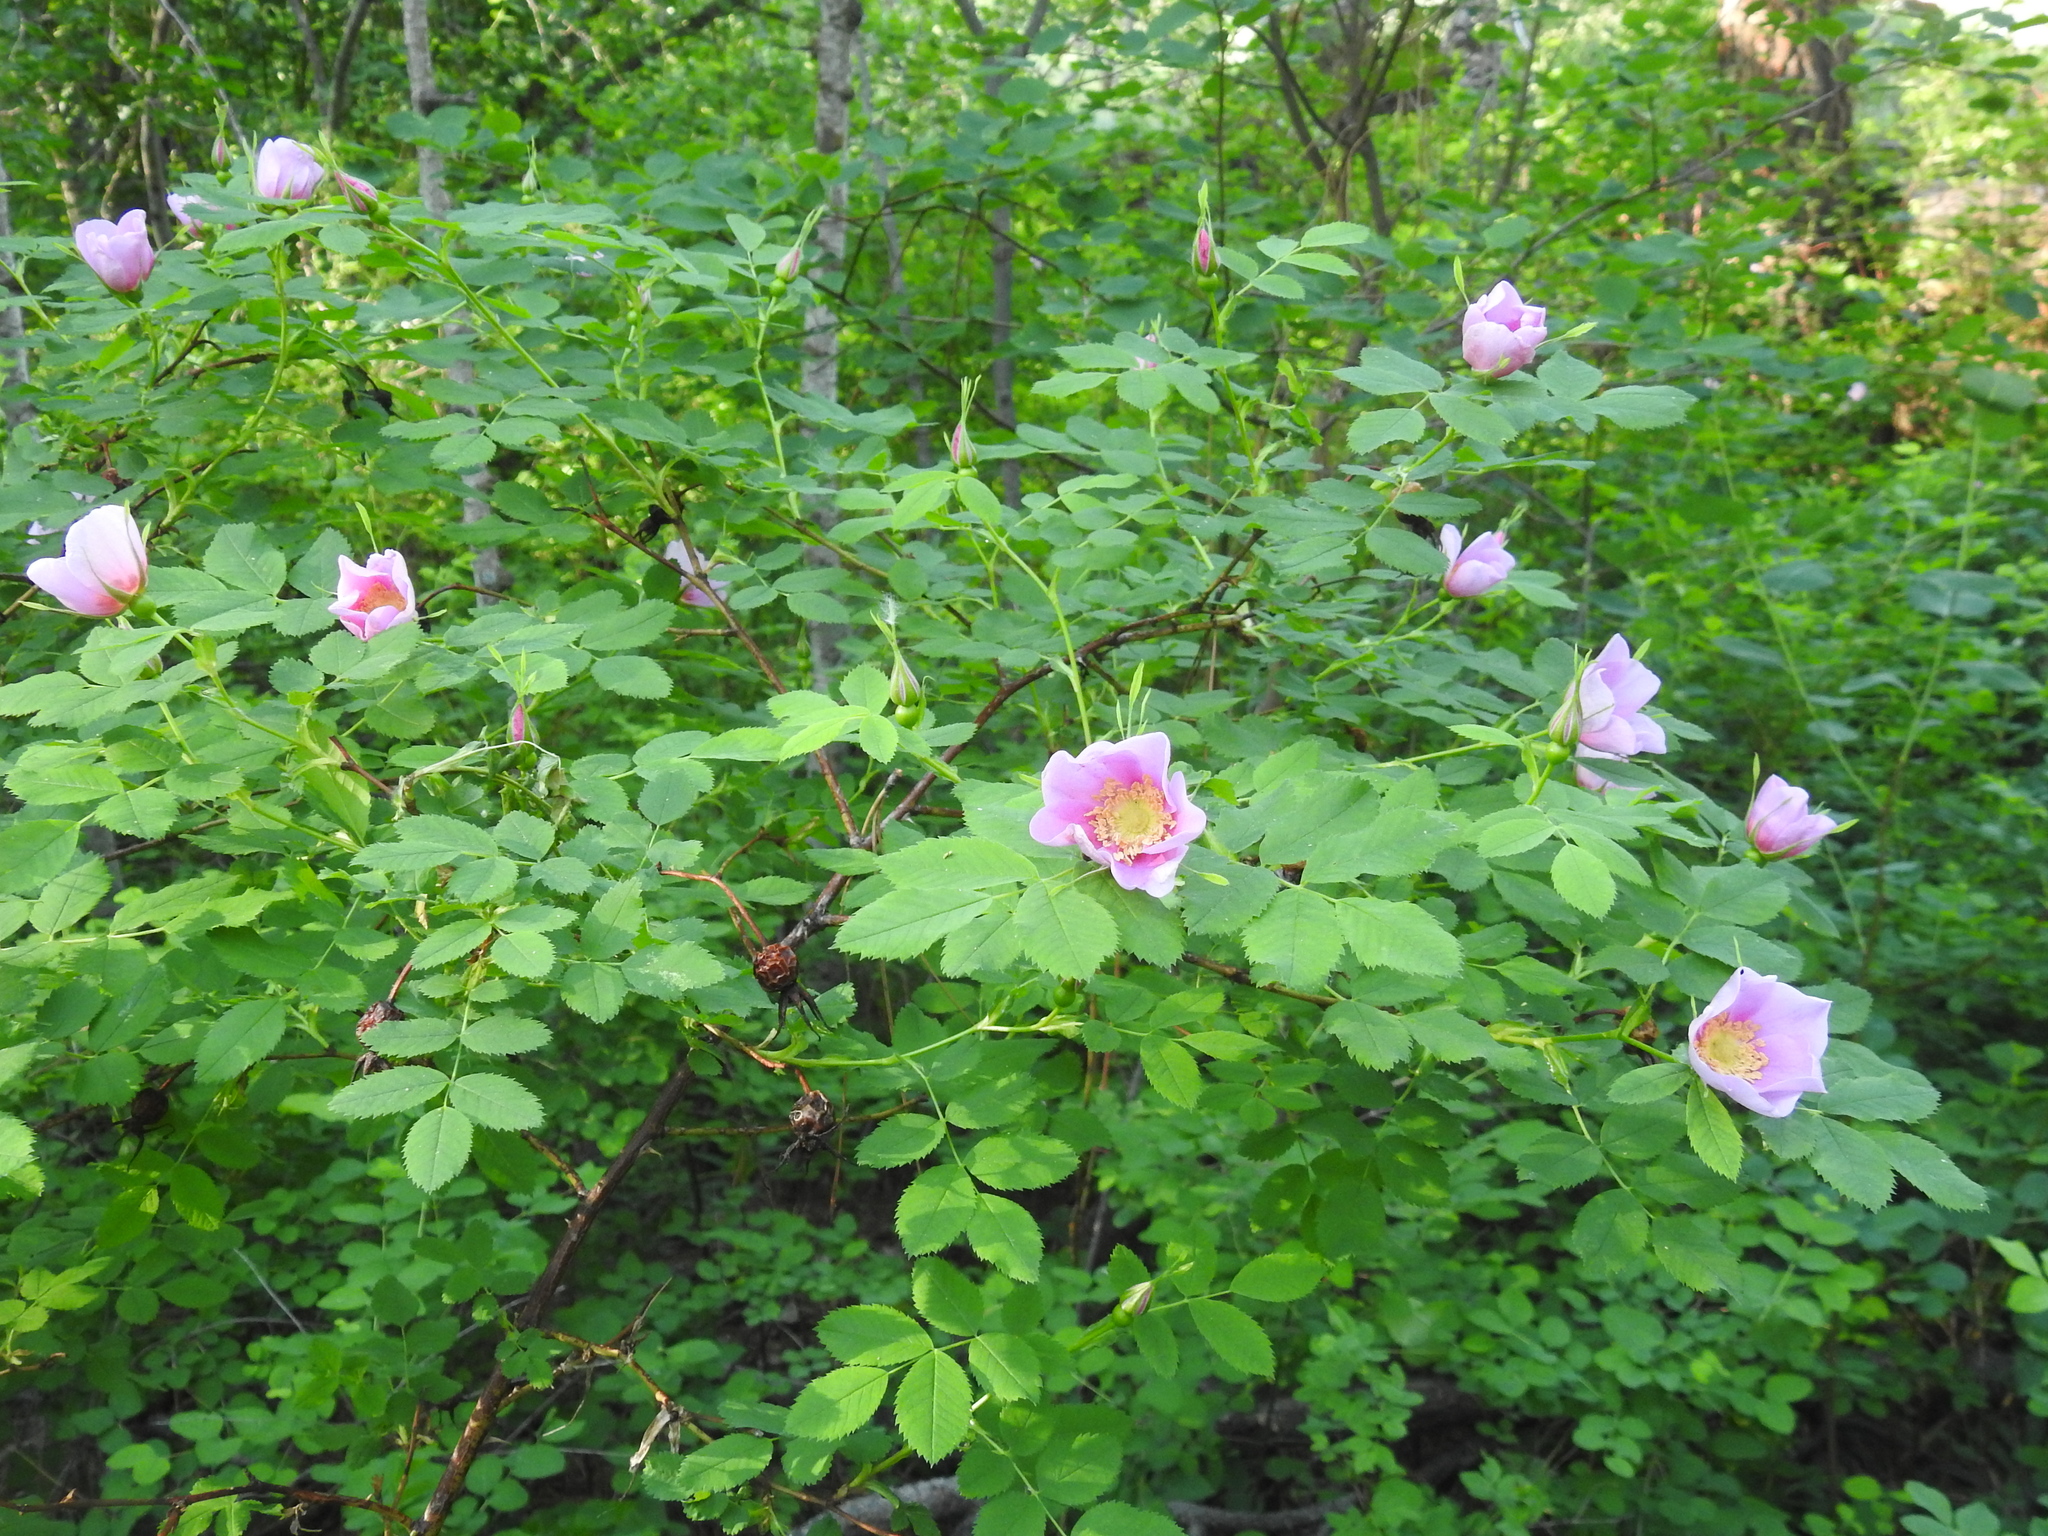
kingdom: Plantae
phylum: Tracheophyta
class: Magnoliopsida
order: Rosales
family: Rosaceae
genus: Rosa
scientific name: Rosa nutkana
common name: Nootka rose
